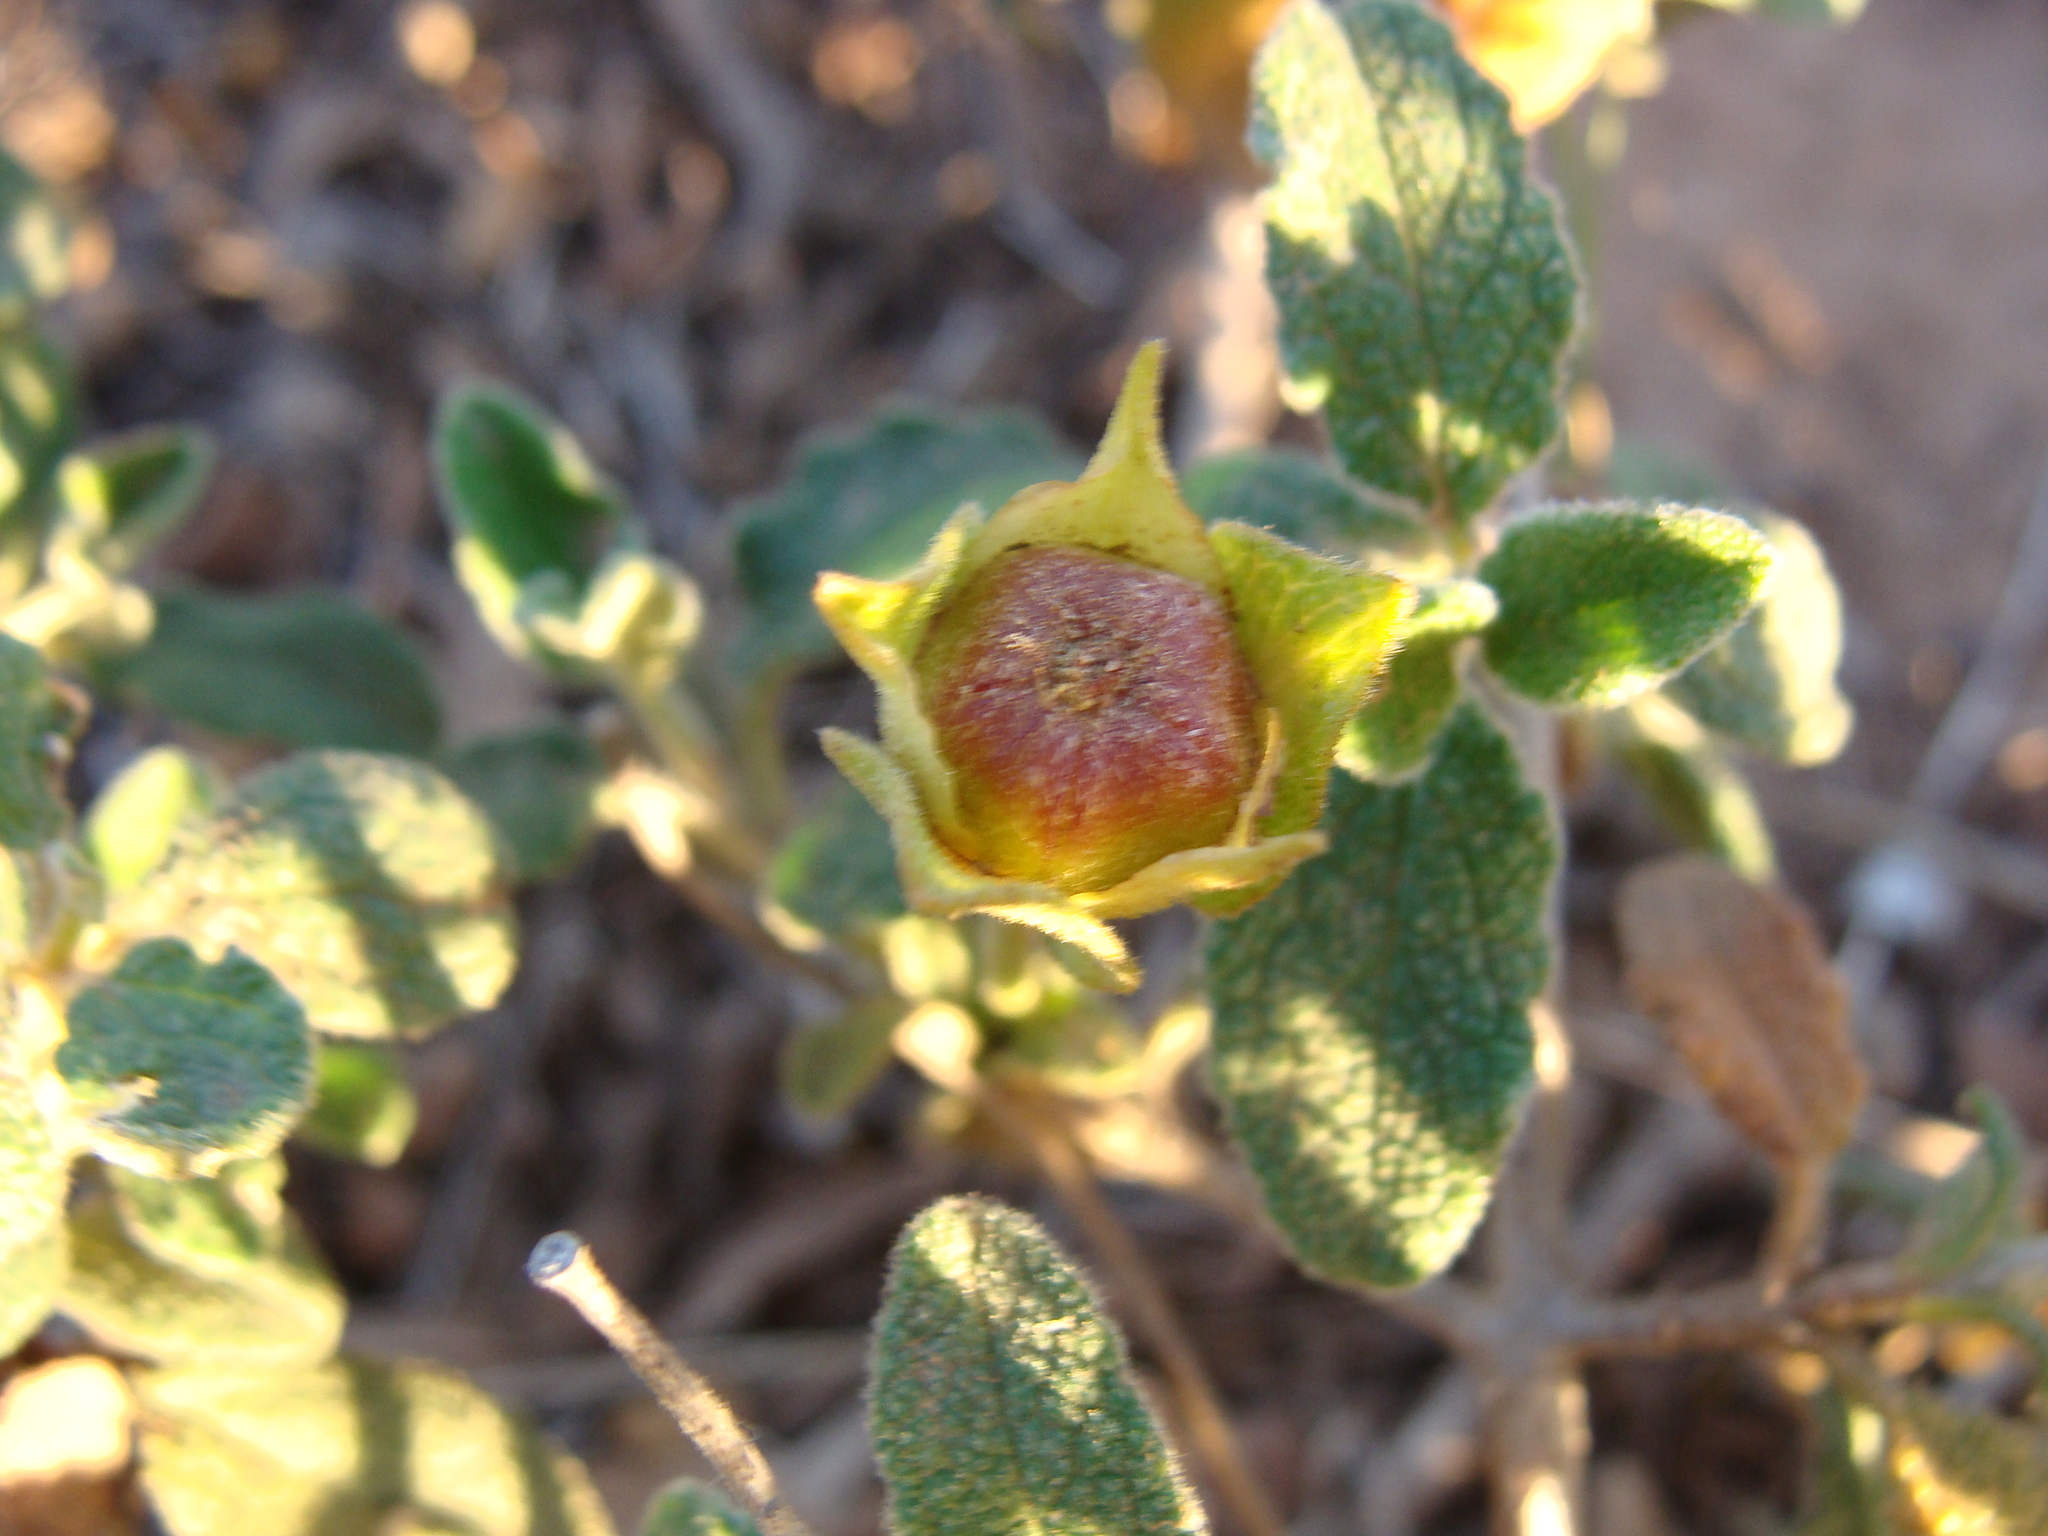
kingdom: Plantae
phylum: Tracheophyta
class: Magnoliopsida
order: Malvales
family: Cistaceae
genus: Cistus
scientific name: Cistus salviifolius
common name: Salvia cistus
